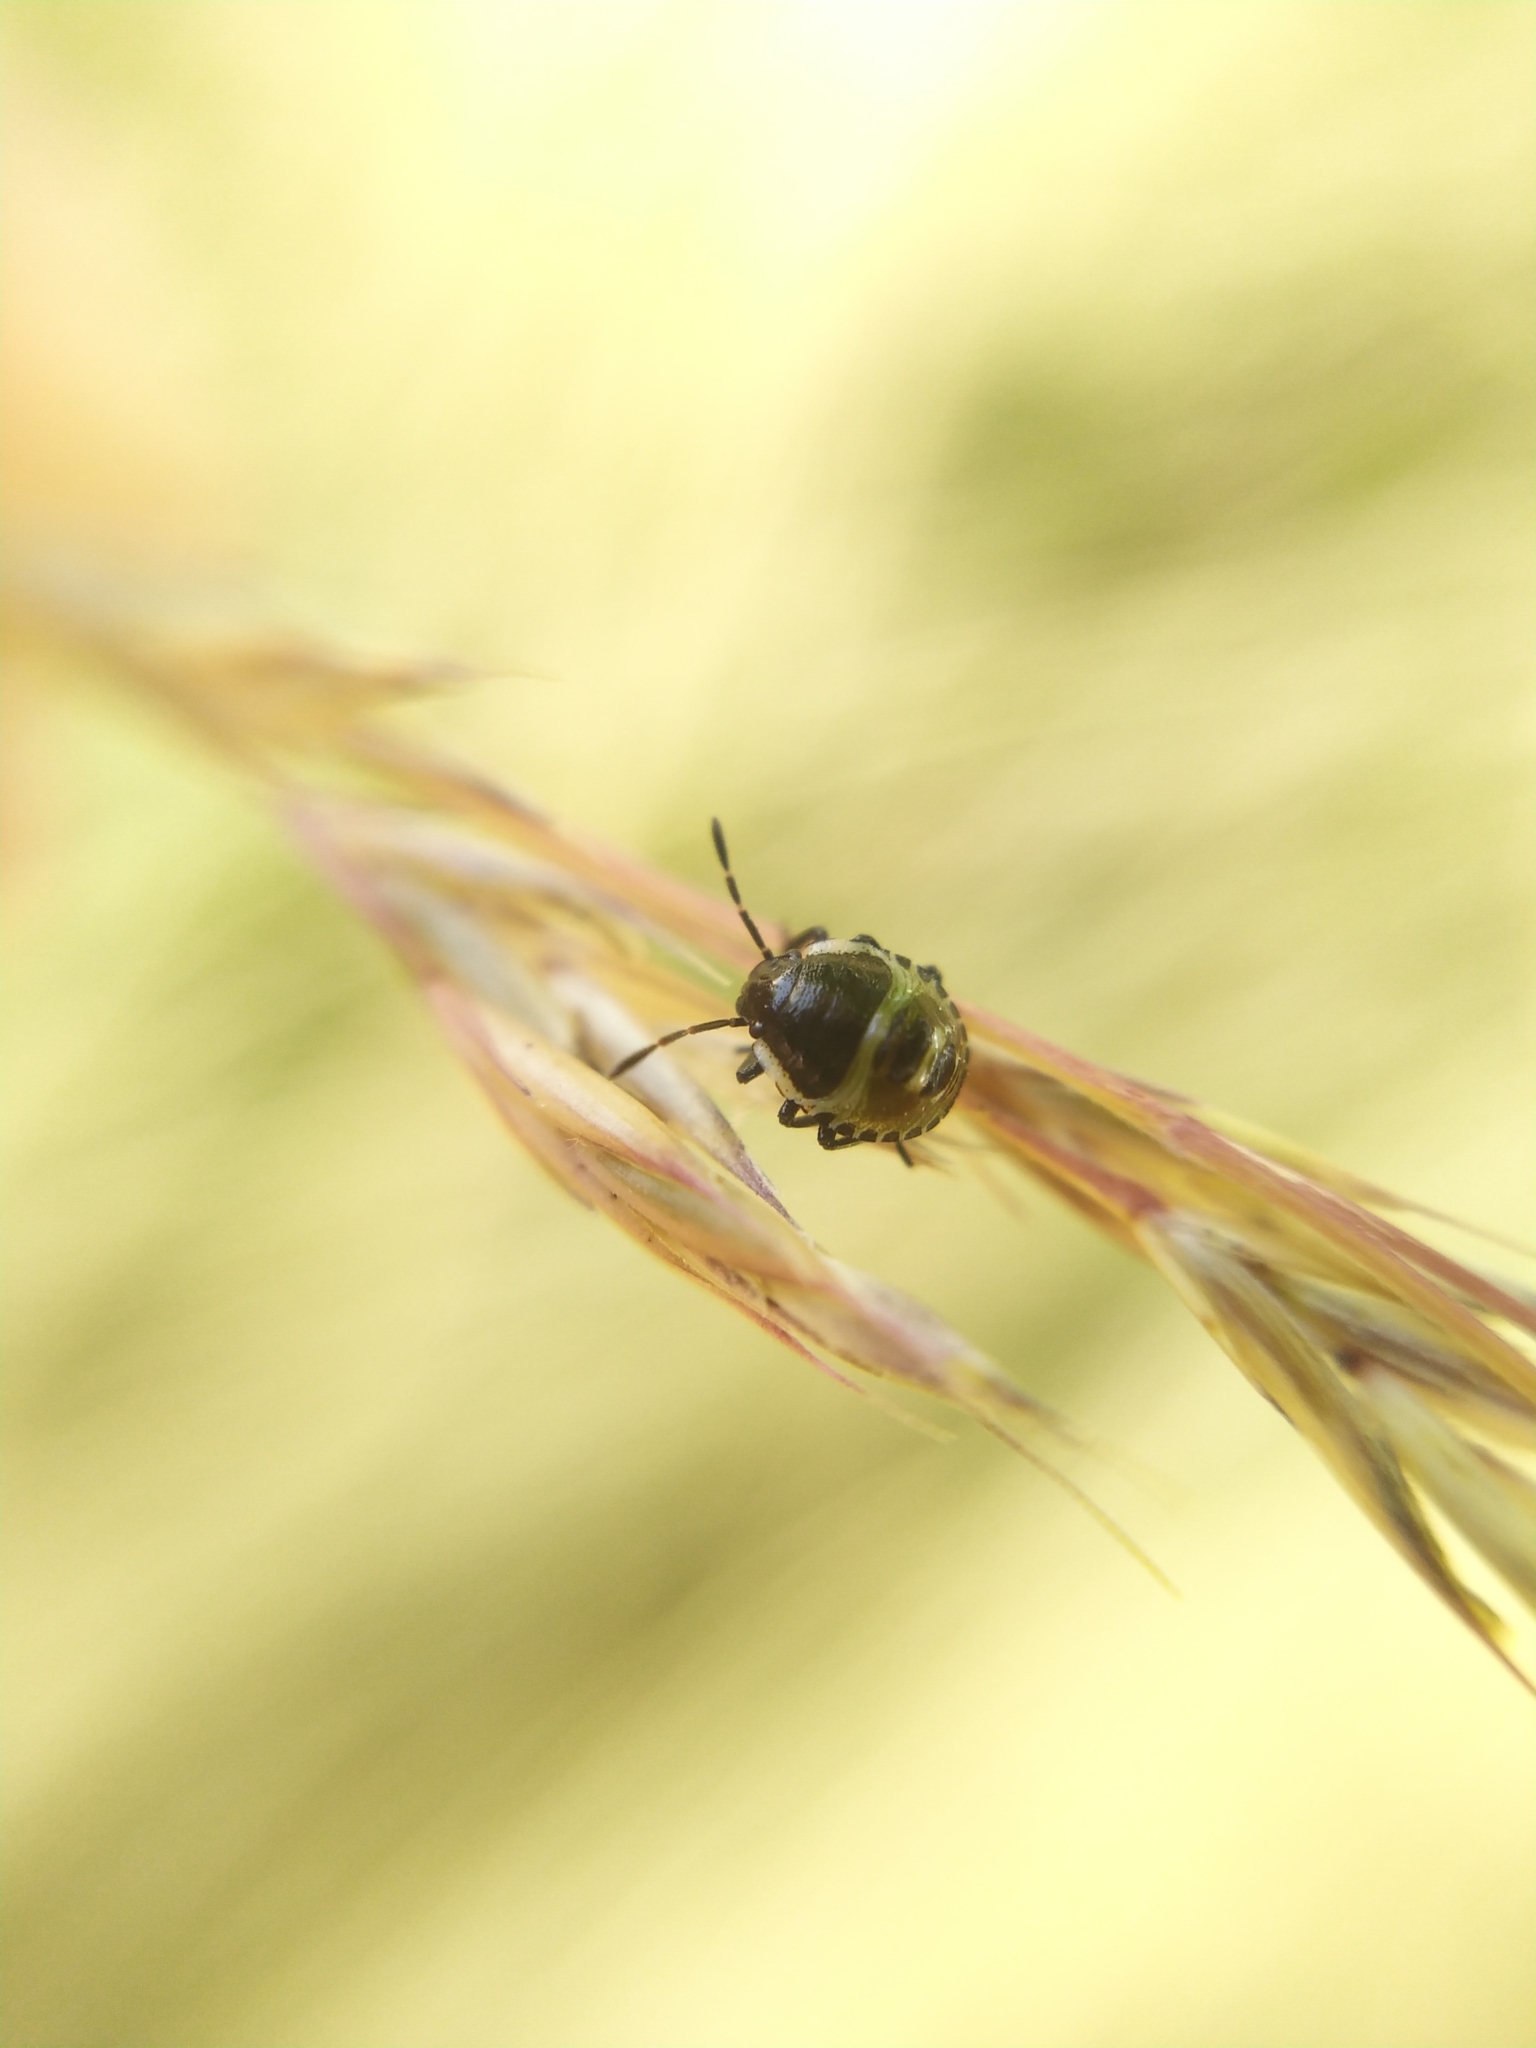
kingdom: Animalia
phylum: Arthropoda
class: Insecta
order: Hemiptera
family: Pentatomidae
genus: Palomena
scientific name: Palomena prasina
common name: Green shieldbug
